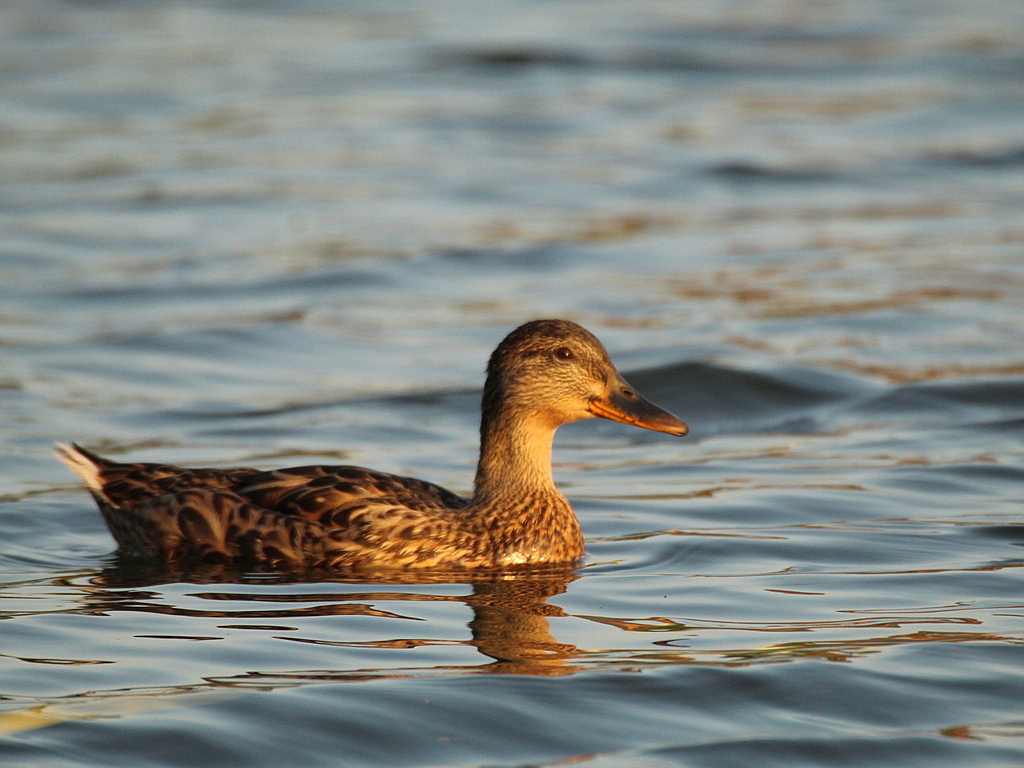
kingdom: Animalia
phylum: Chordata
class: Aves
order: Anseriformes
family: Anatidae
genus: Anas
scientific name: Anas platyrhynchos
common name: Mallard
